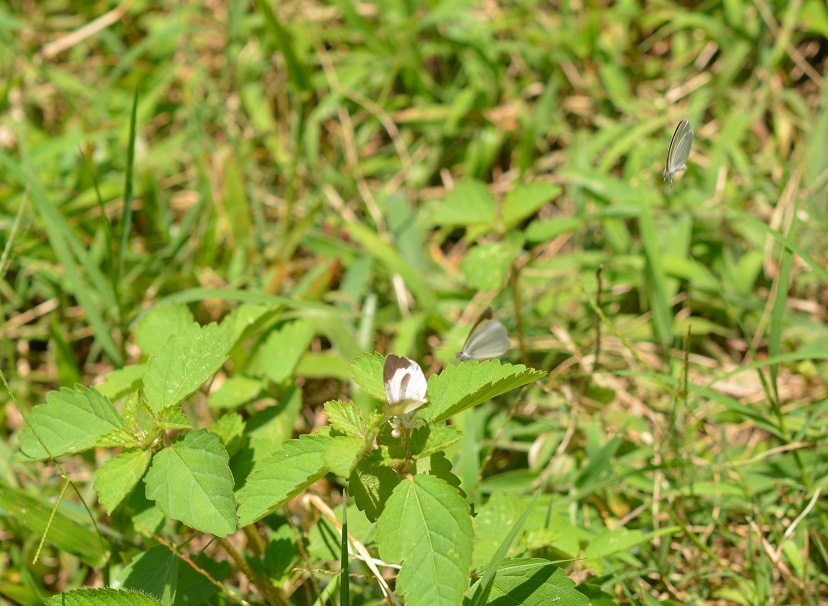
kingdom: Animalia
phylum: Arthropoda
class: Insecta
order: Lepidoptera
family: Pieridae
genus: Eurema
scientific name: Eurema daira
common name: Barred sulphur
